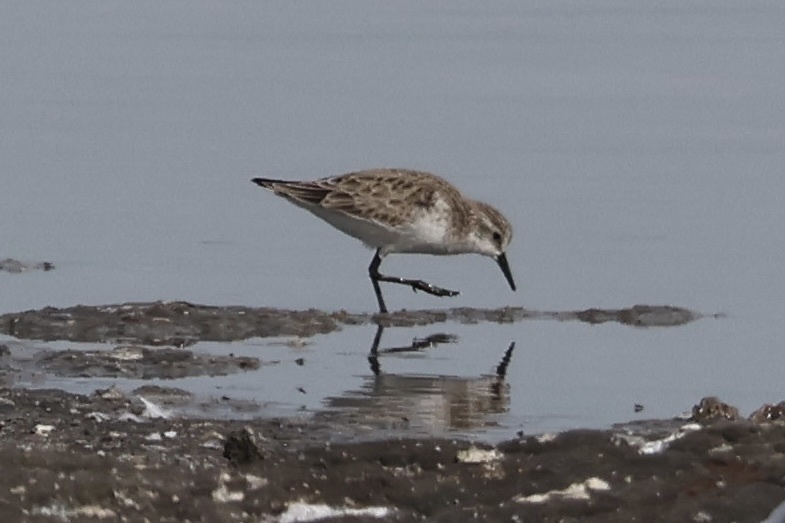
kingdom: Animalia
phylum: Chordata
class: Aves
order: Charadriiformes
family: Scolopacidae
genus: Calidris
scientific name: Calidris minuta
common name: Little stint
